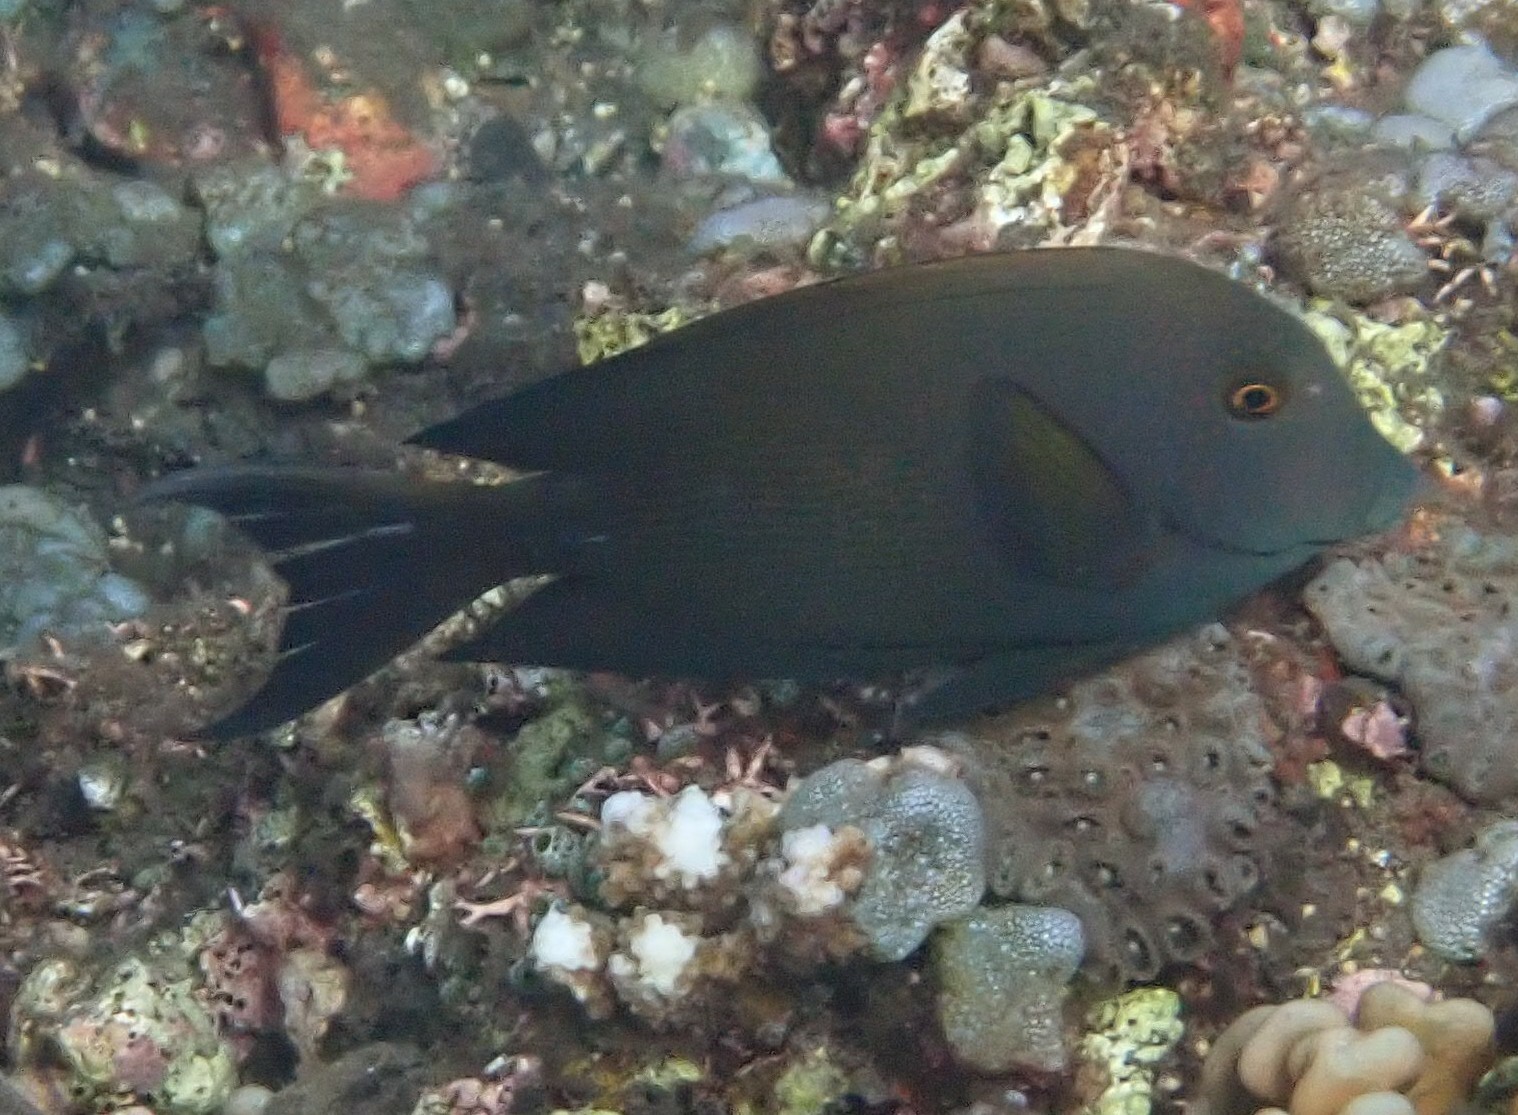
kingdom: Animalia
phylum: Chordata
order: Perciformes
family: Acanthuridae
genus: Ctenochaetus
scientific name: Ctenochaetus striatus
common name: Bristle-toothed surgeonfish
